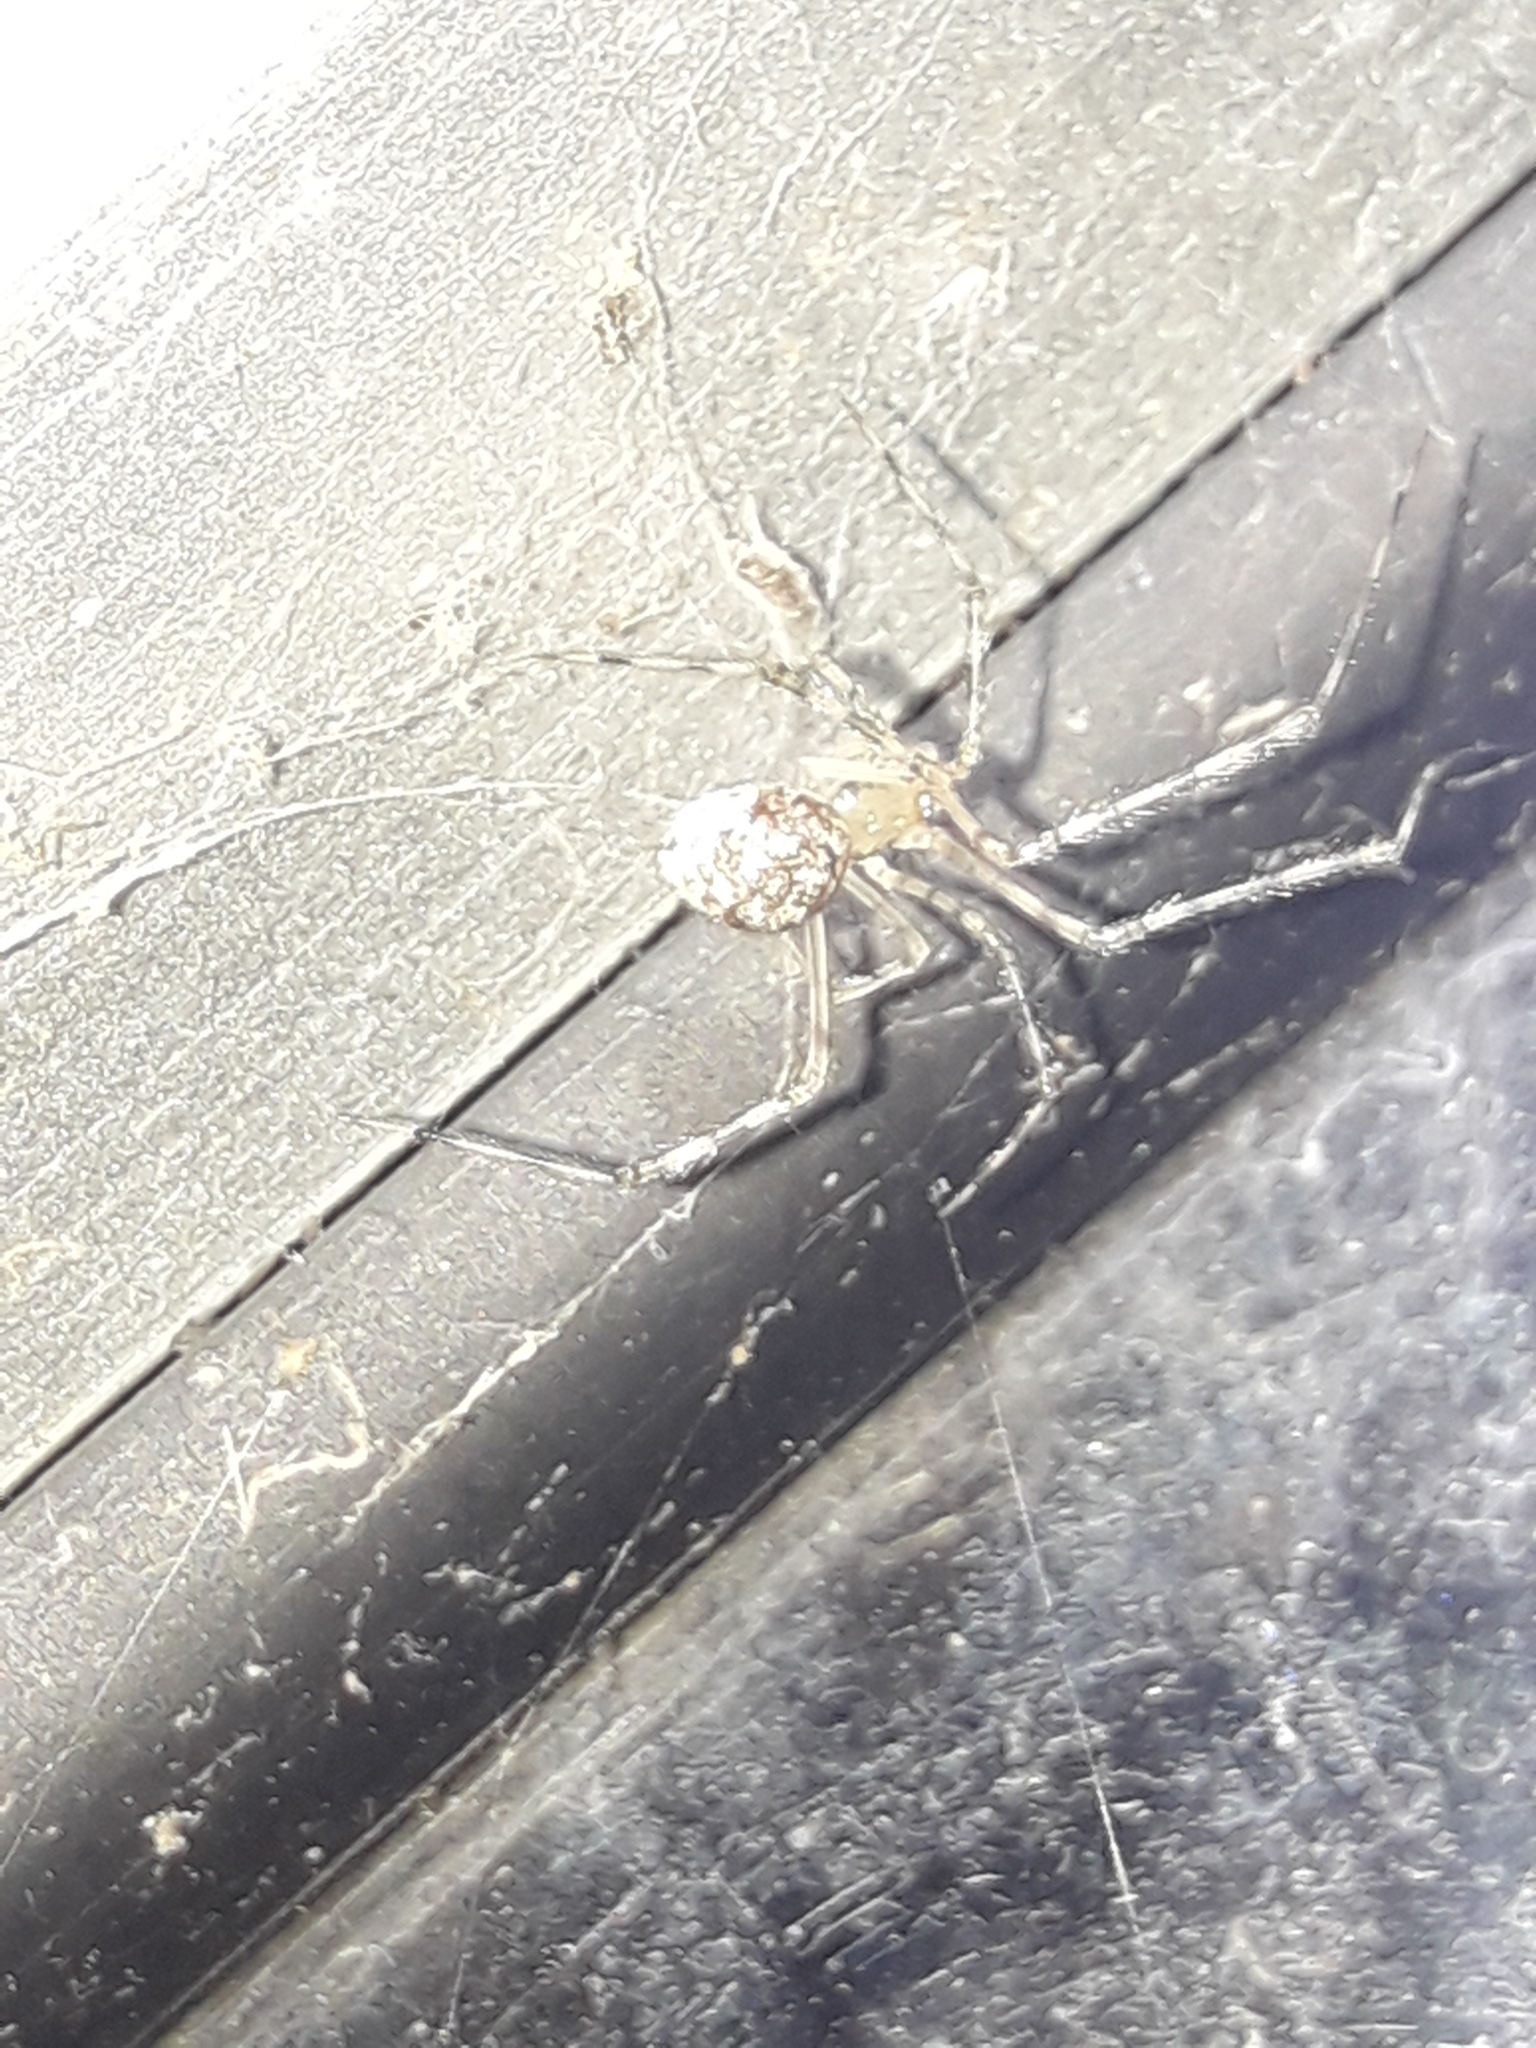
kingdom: Animalia
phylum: Arthropoda
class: Arachnida
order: Araneae
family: Theridiidae
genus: Cryptachaea
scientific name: Cryptachaea gigantipes
